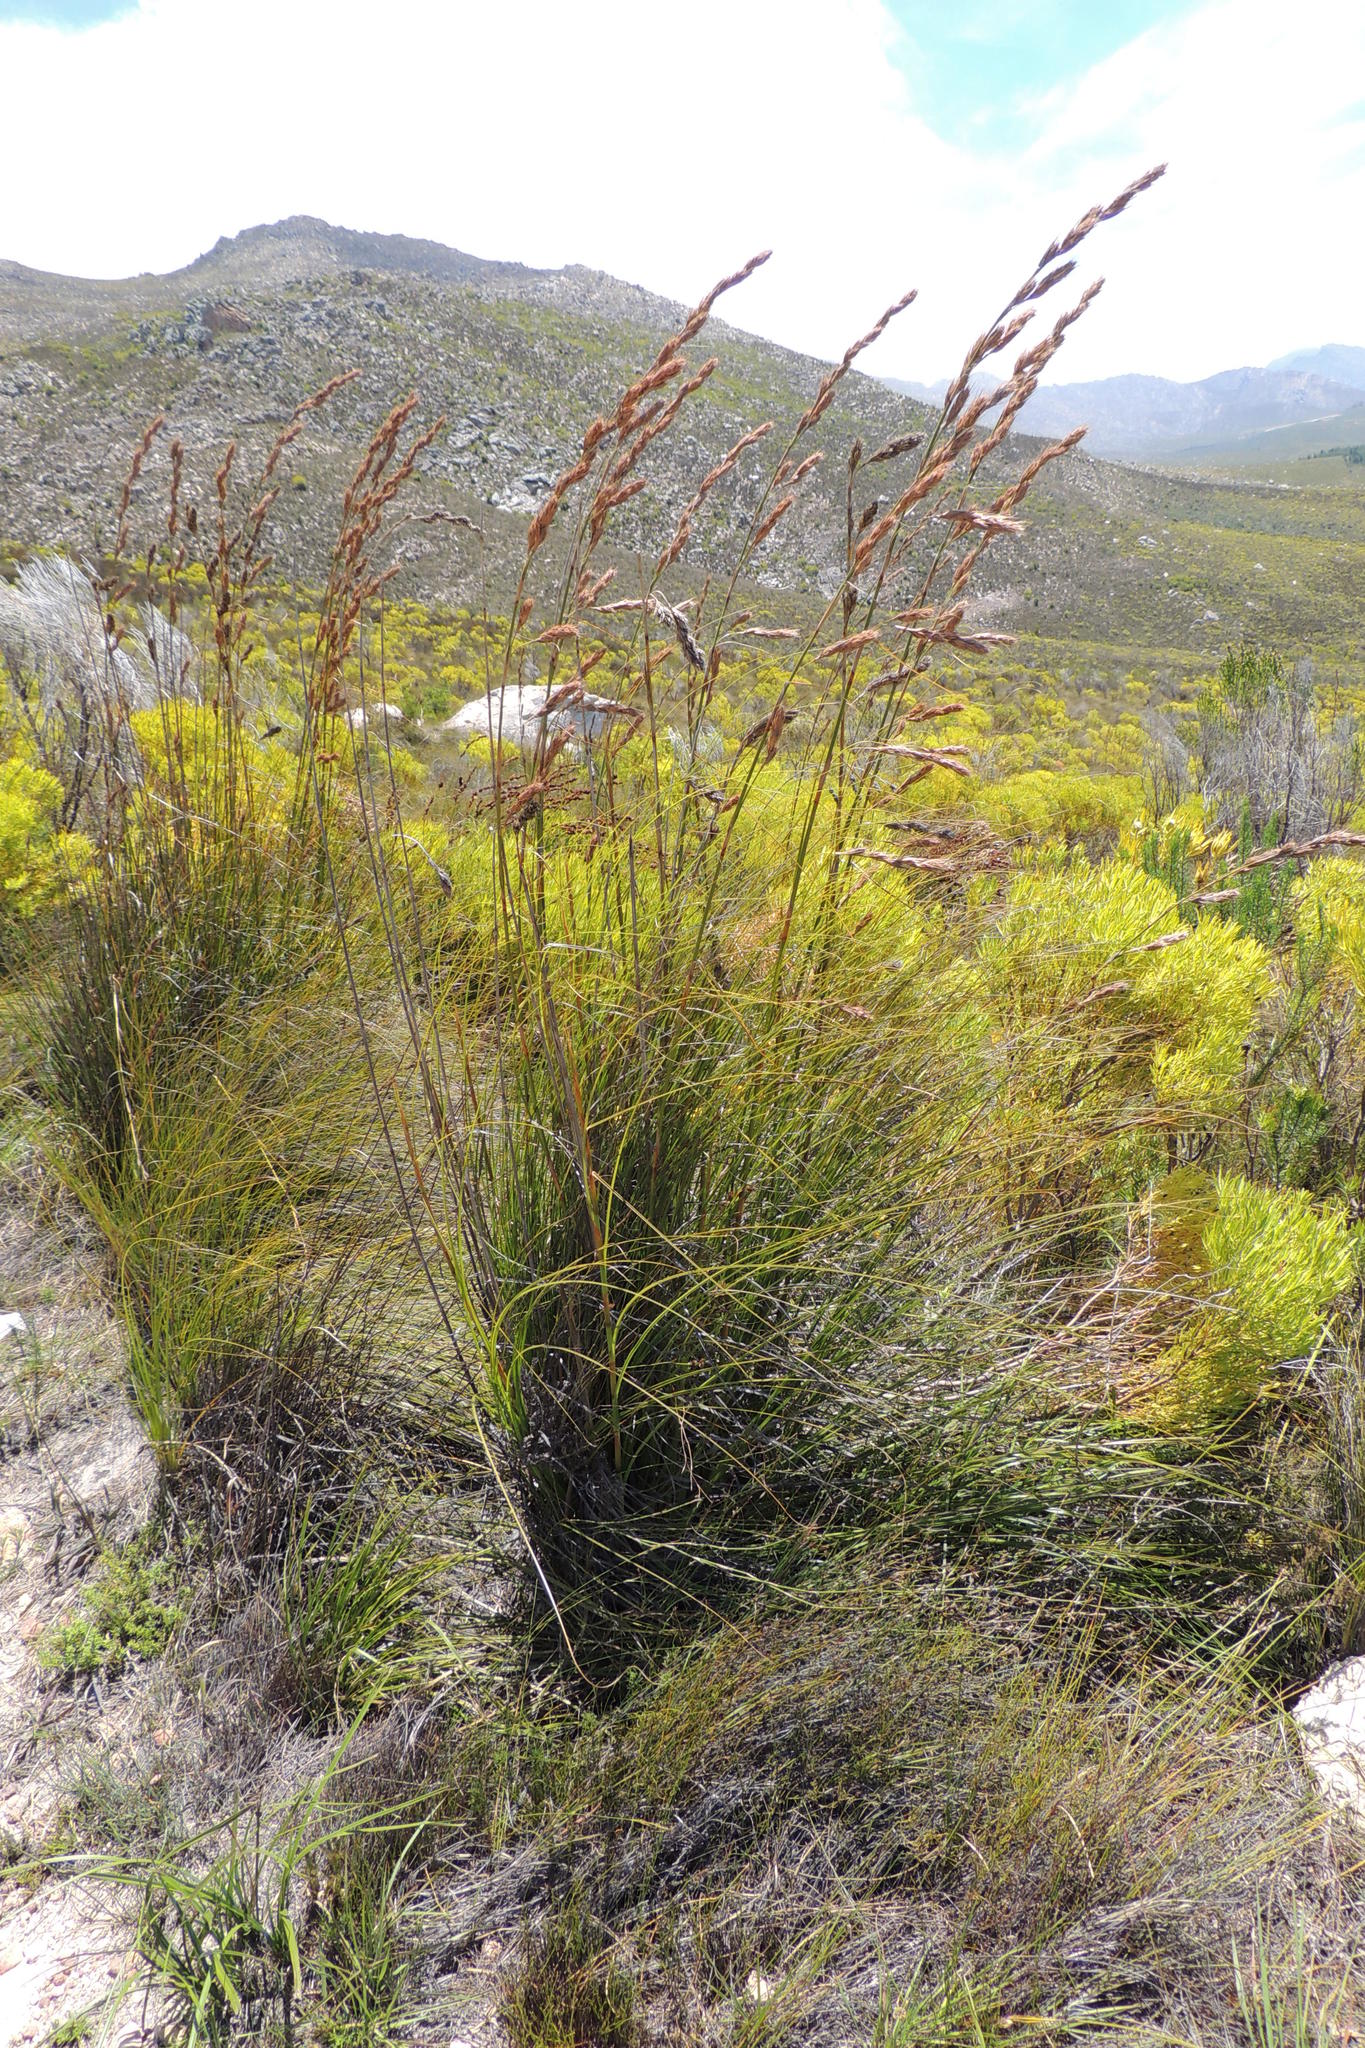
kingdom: Plantae
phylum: Tracheophyta
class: Liliopsida
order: Poales
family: Cyperaceae
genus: Tetraria
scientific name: Tetraria bromoides
